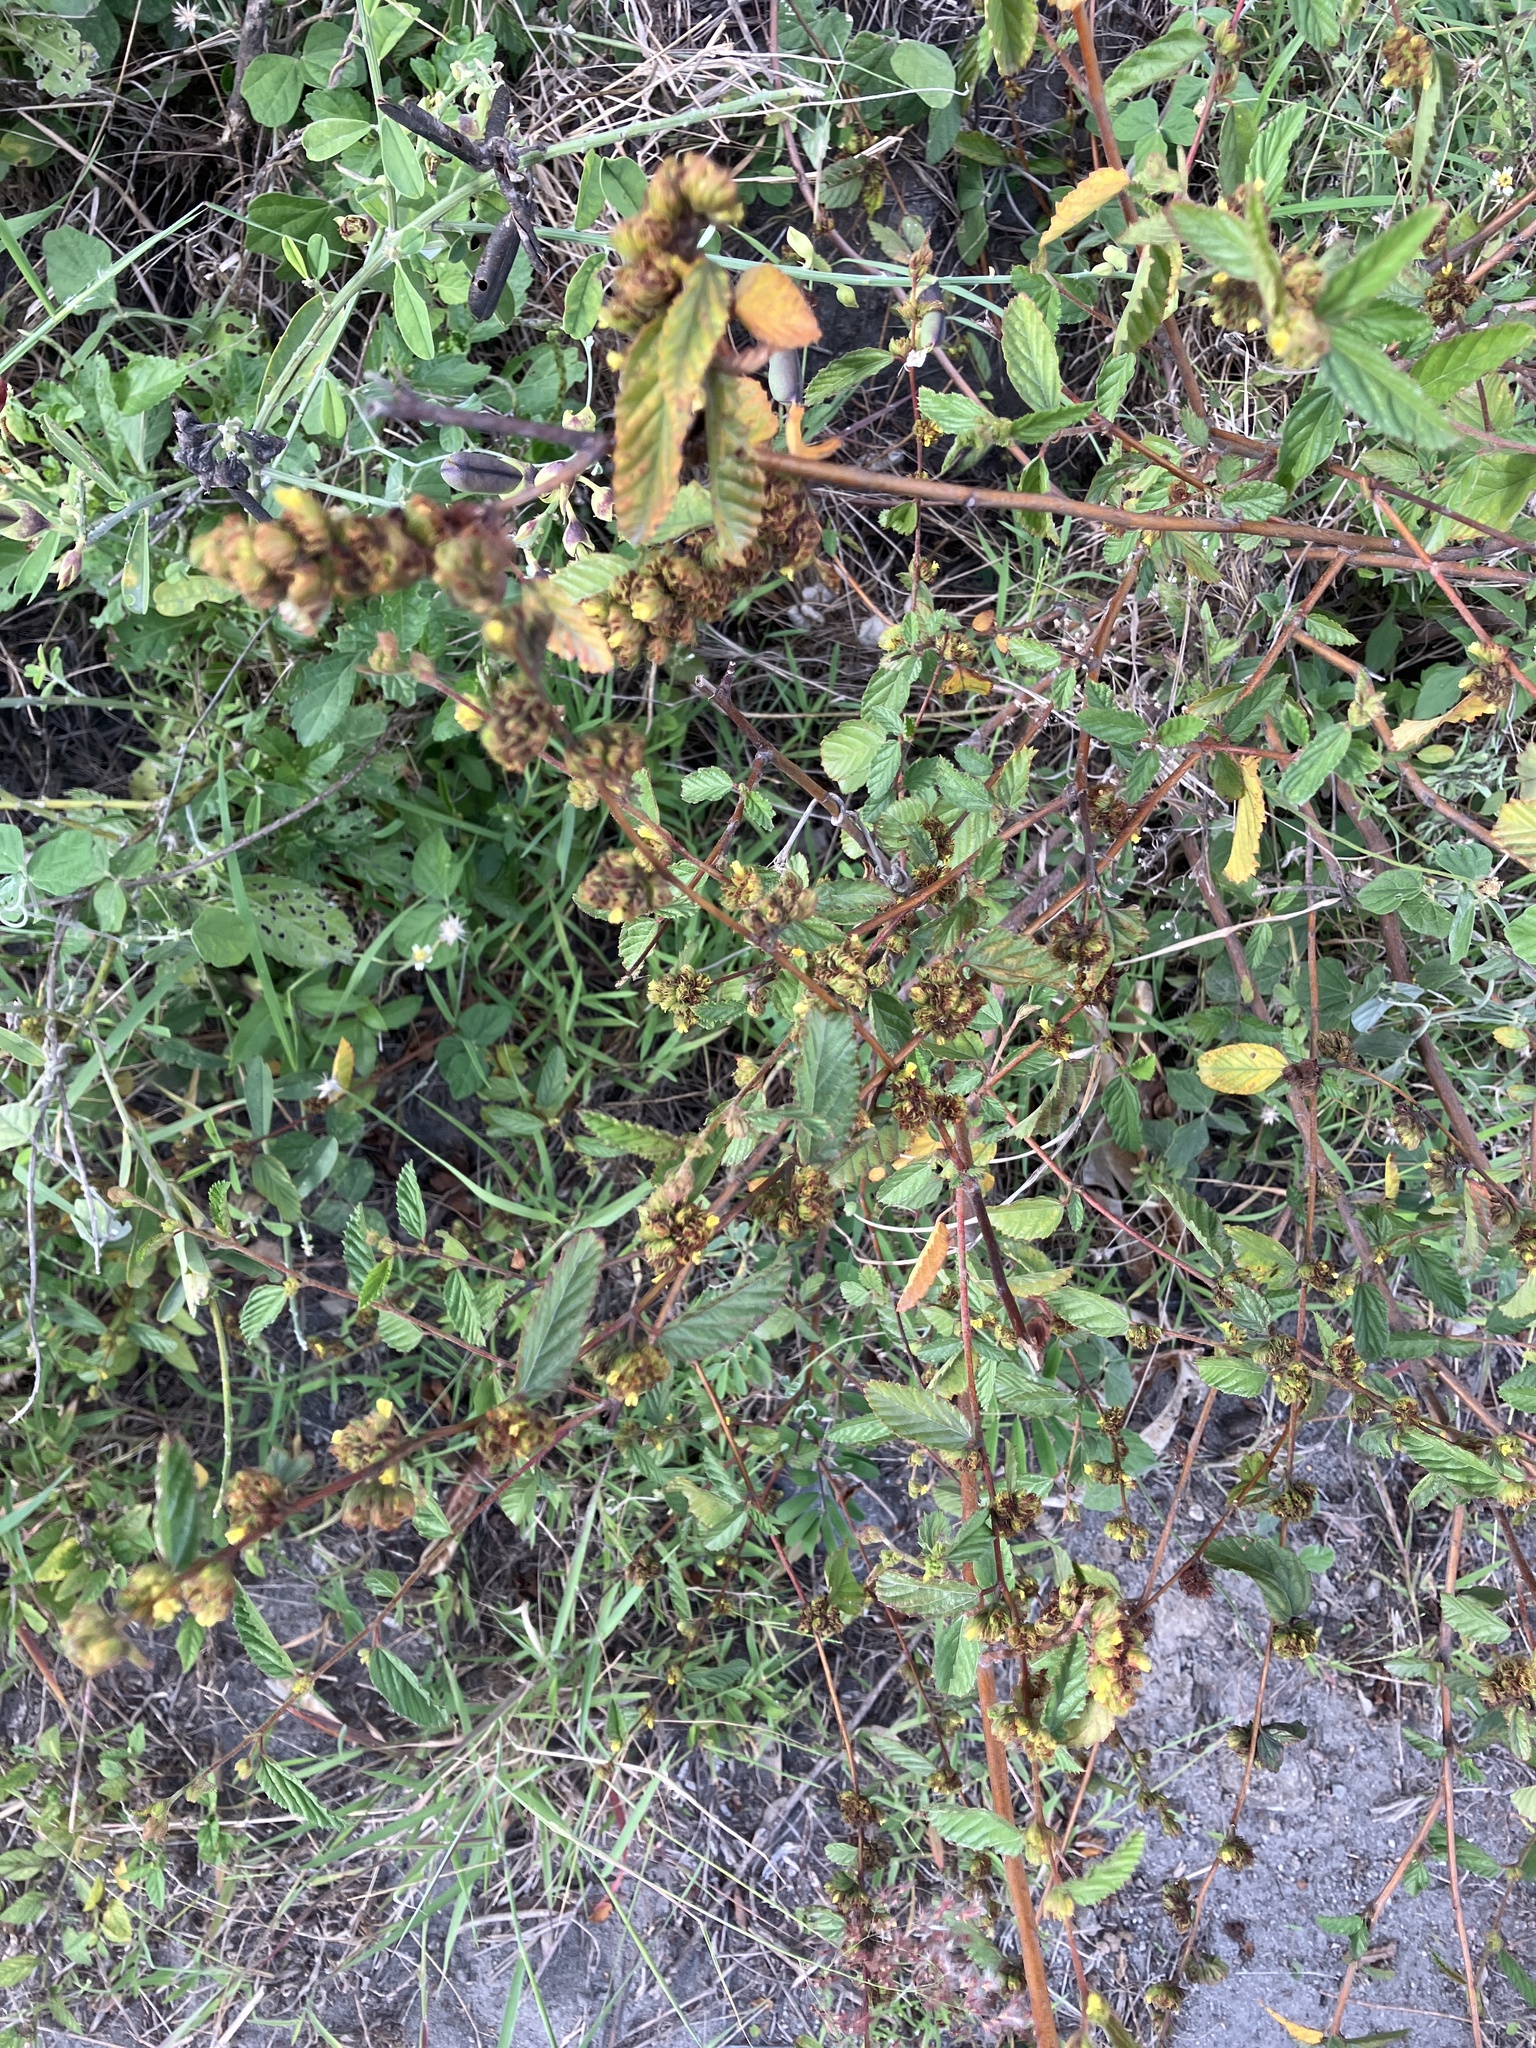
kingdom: Plantae
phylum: Tracheophyta
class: Magnoliopsida
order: Malvales
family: Malvaceae
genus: Waltheria
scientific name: Waltheria indica
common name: Leather-coat
